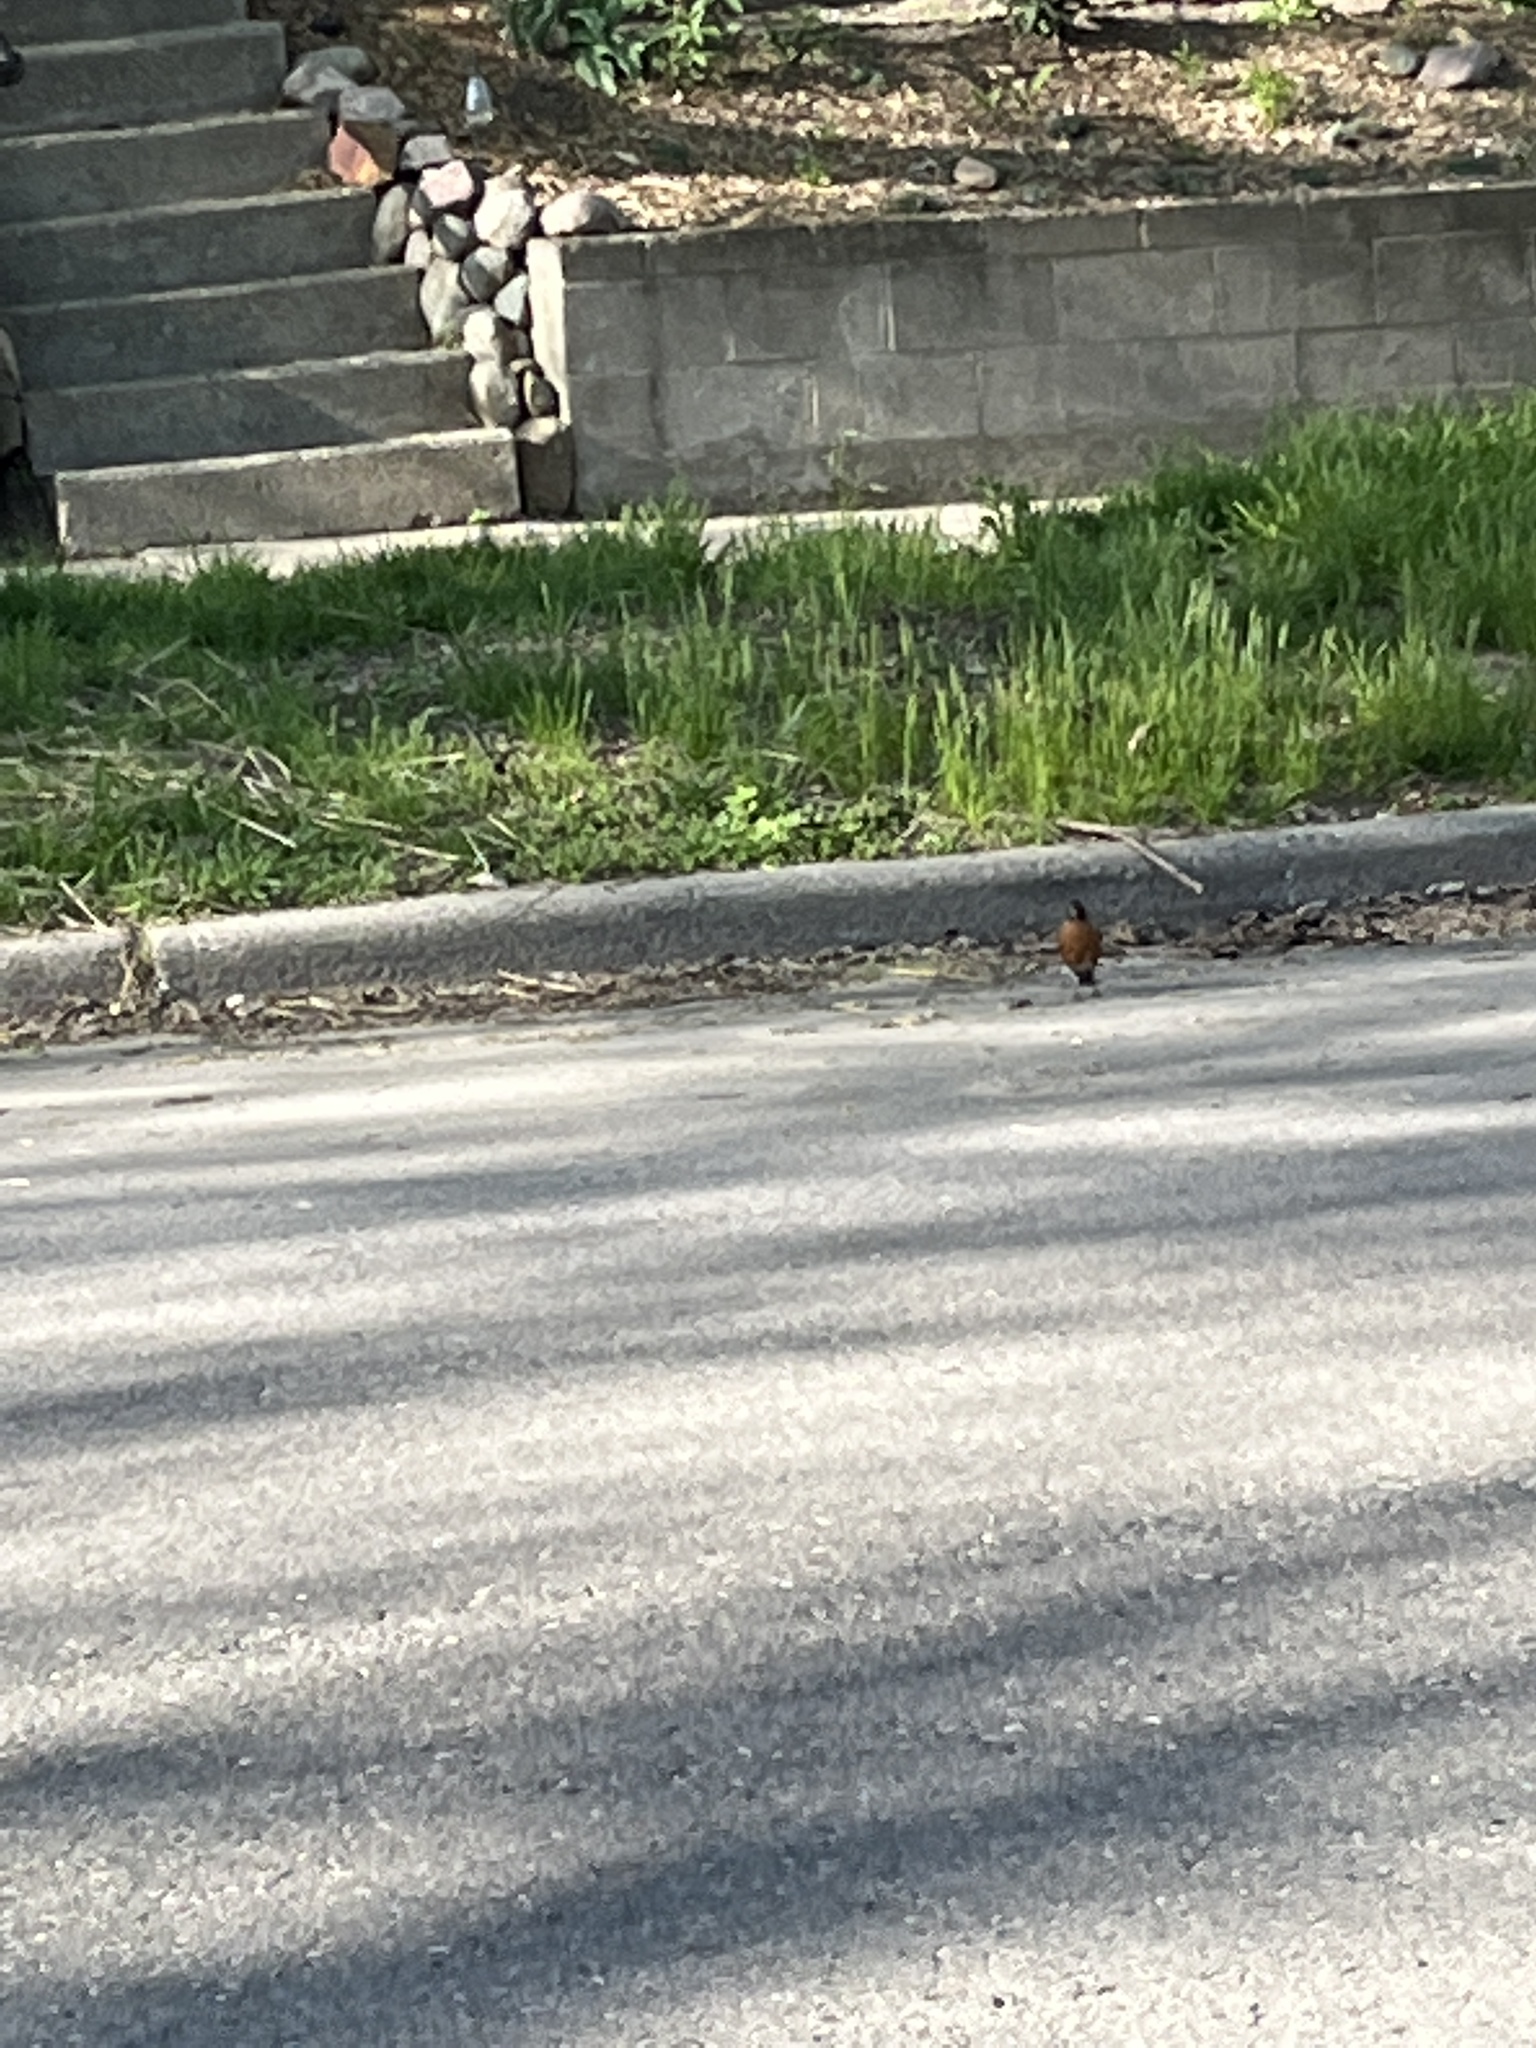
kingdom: Animalia
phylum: Chordata
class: Aves
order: Passeriformes
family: Turdidae
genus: Turdus
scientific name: Turdus migratorius
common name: American robin
